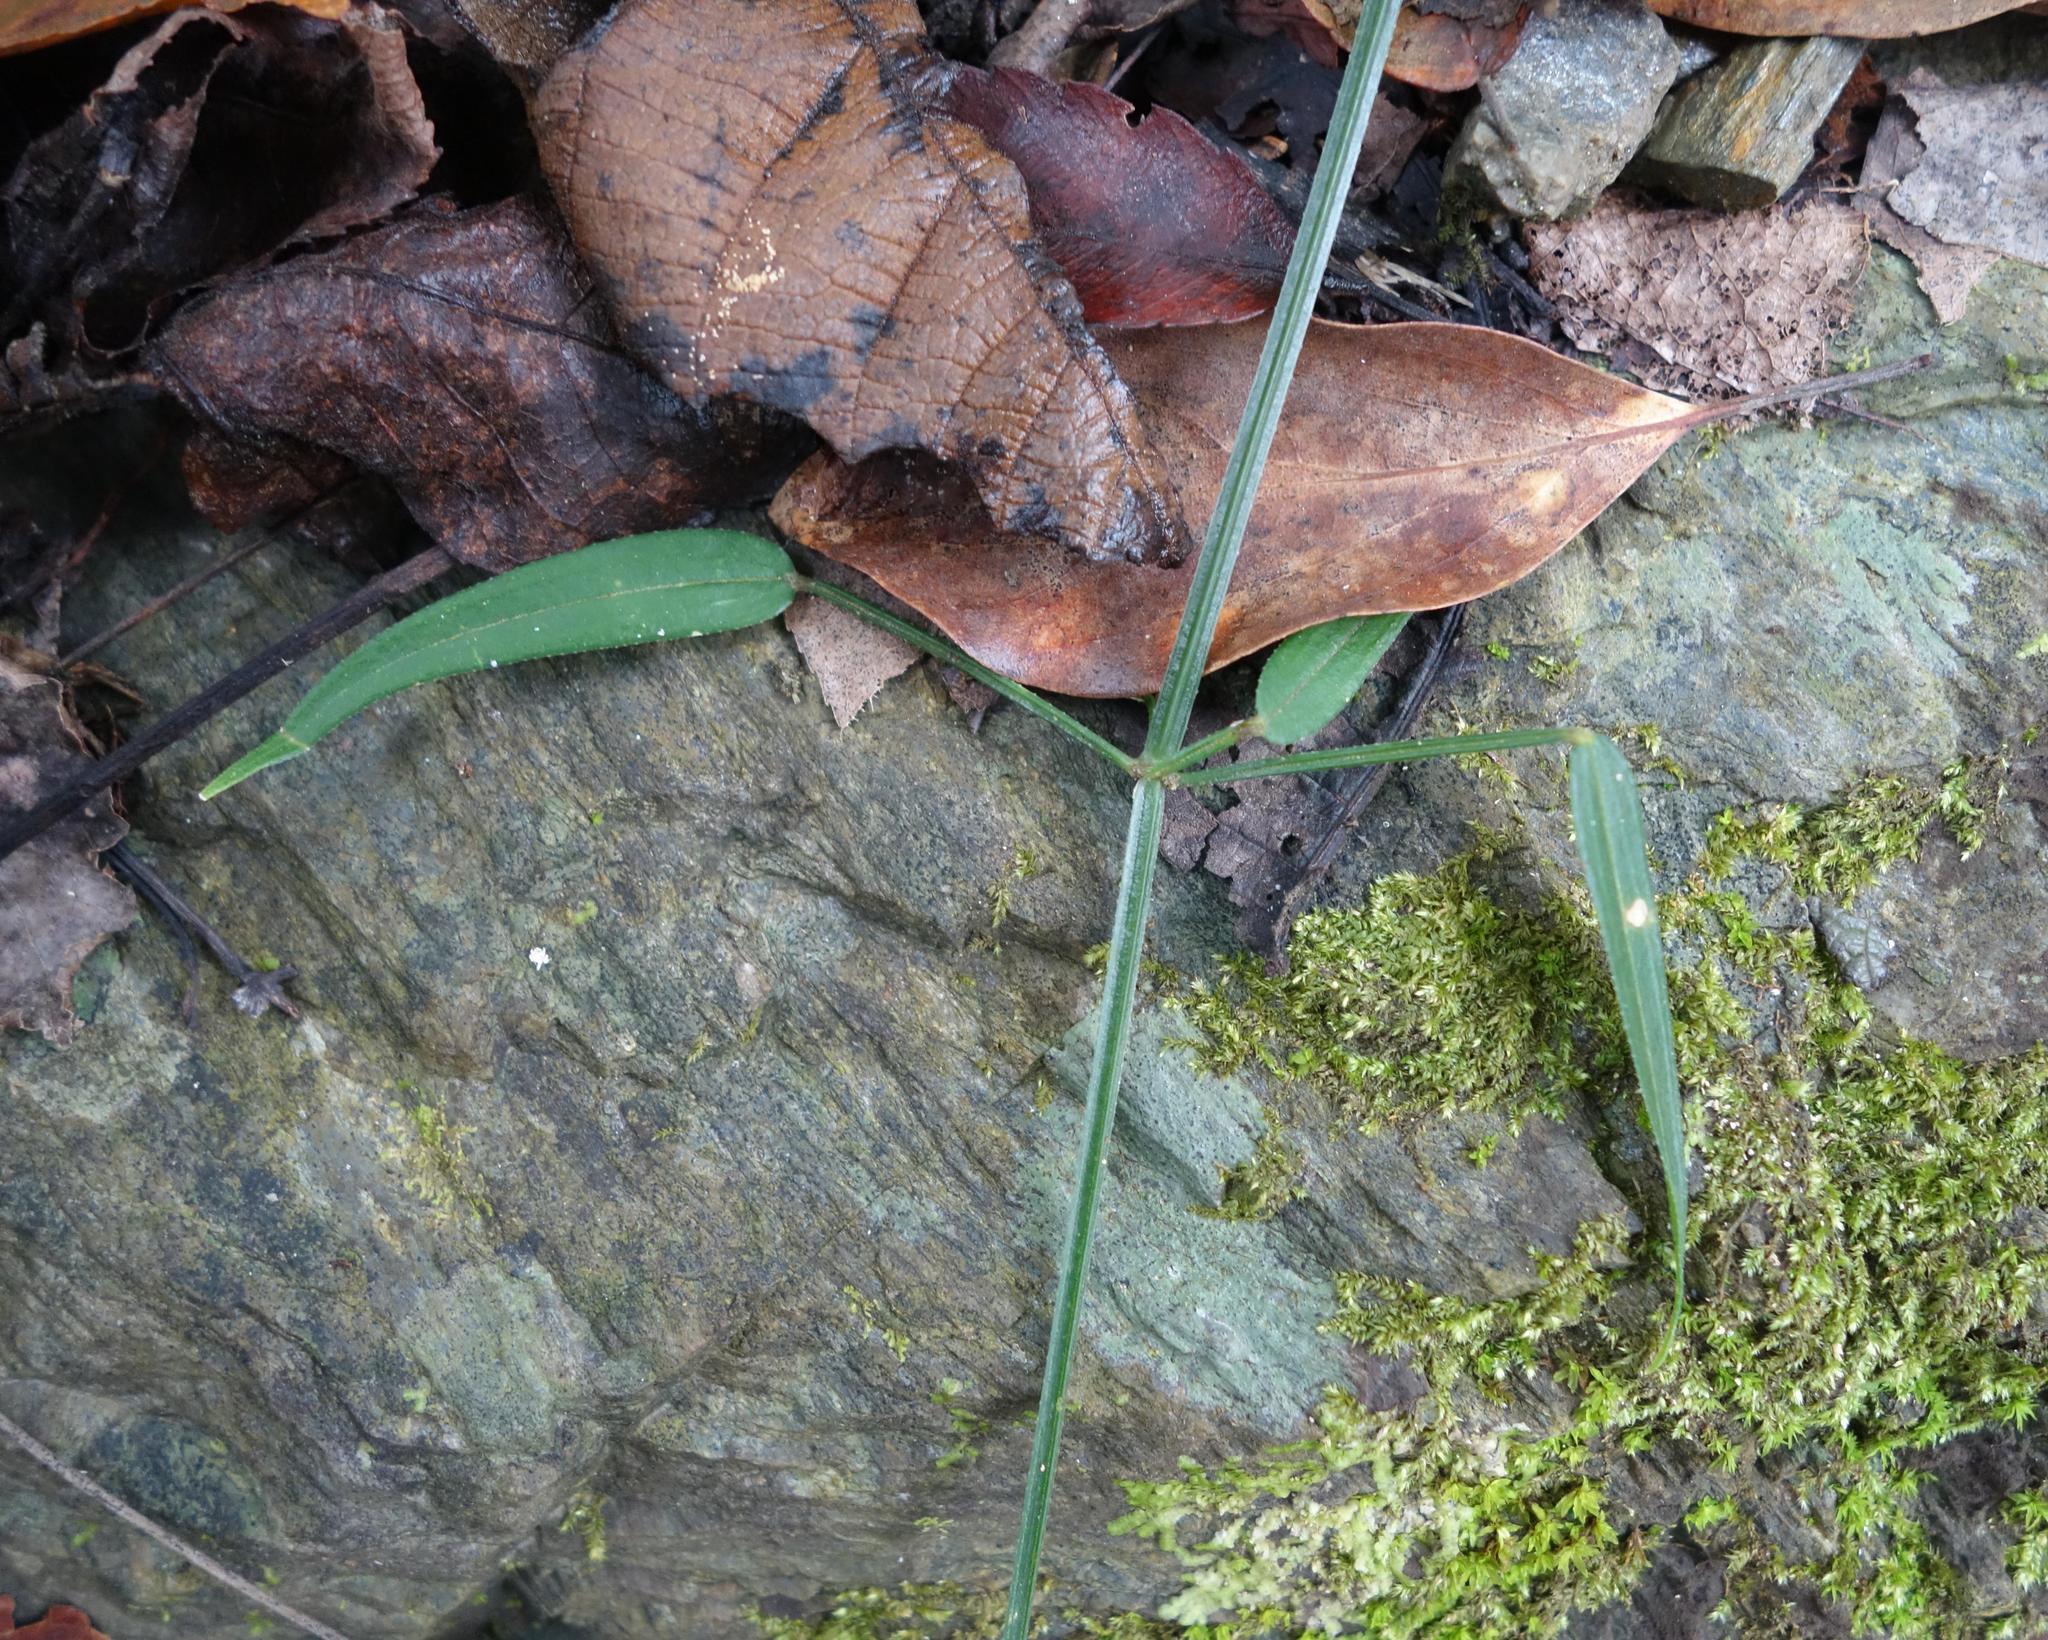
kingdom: Plantae
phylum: Tracheophyta
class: Magnoliopsida
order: Gentianales
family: Rubiaceae
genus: Rubia
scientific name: Rubia alata
